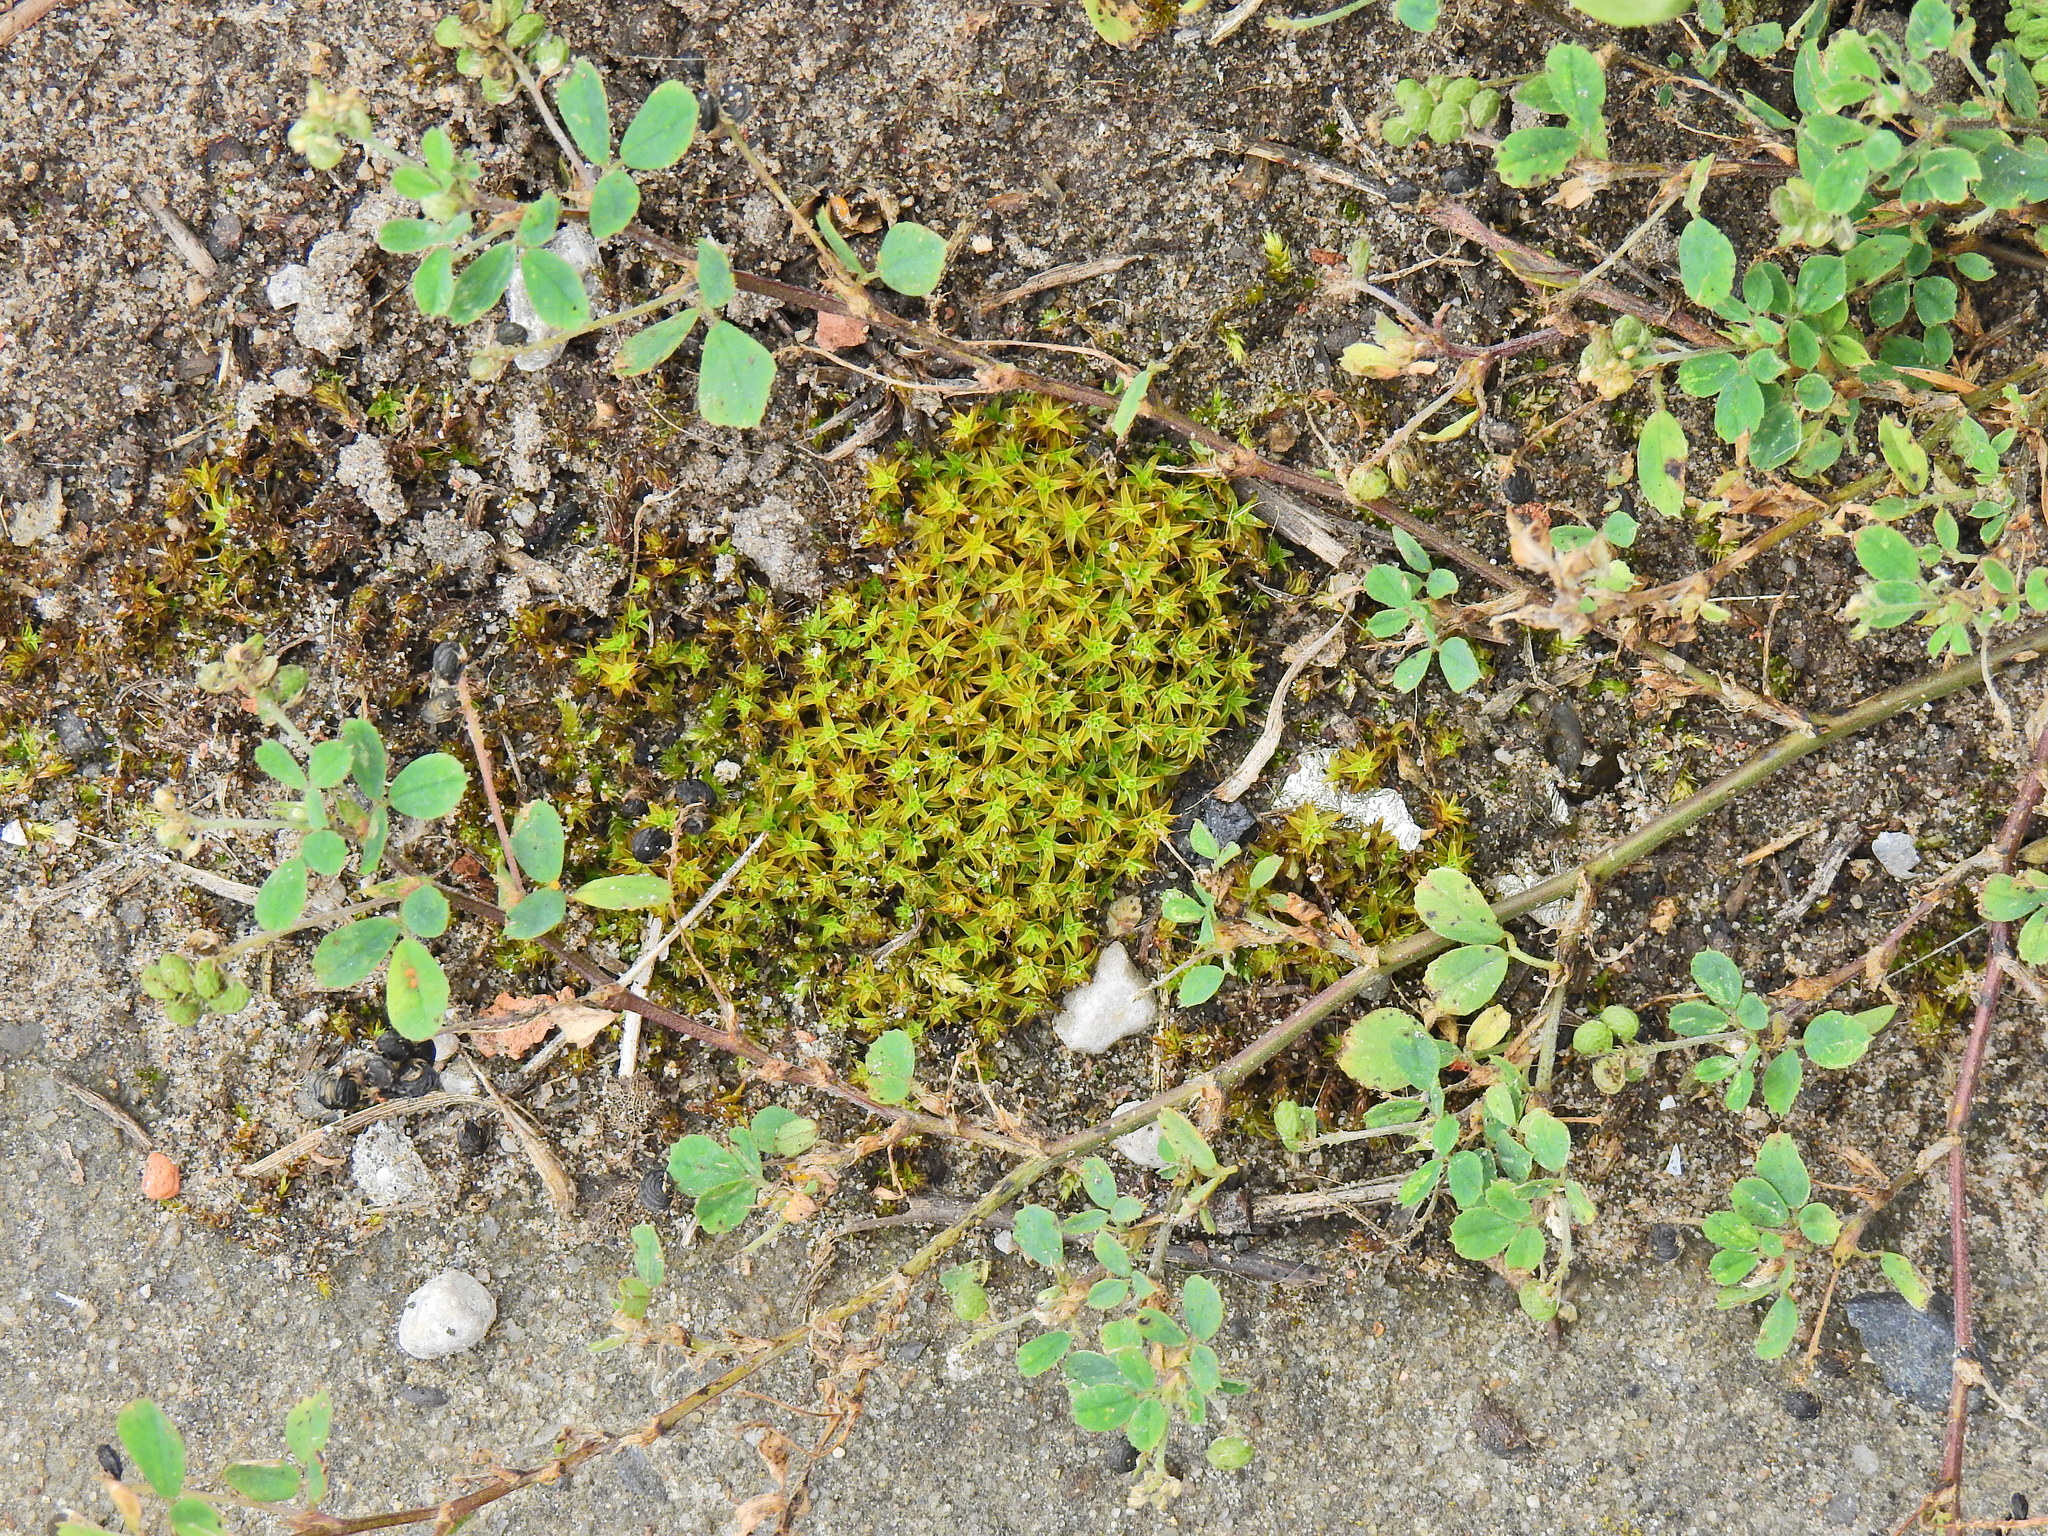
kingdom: Plantae
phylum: Bryophyta
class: Bryopsida
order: Pottiales
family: Pottiaceae
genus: Syntrichia
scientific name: Syntrichia ruralis
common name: Sidewalk screw moss
